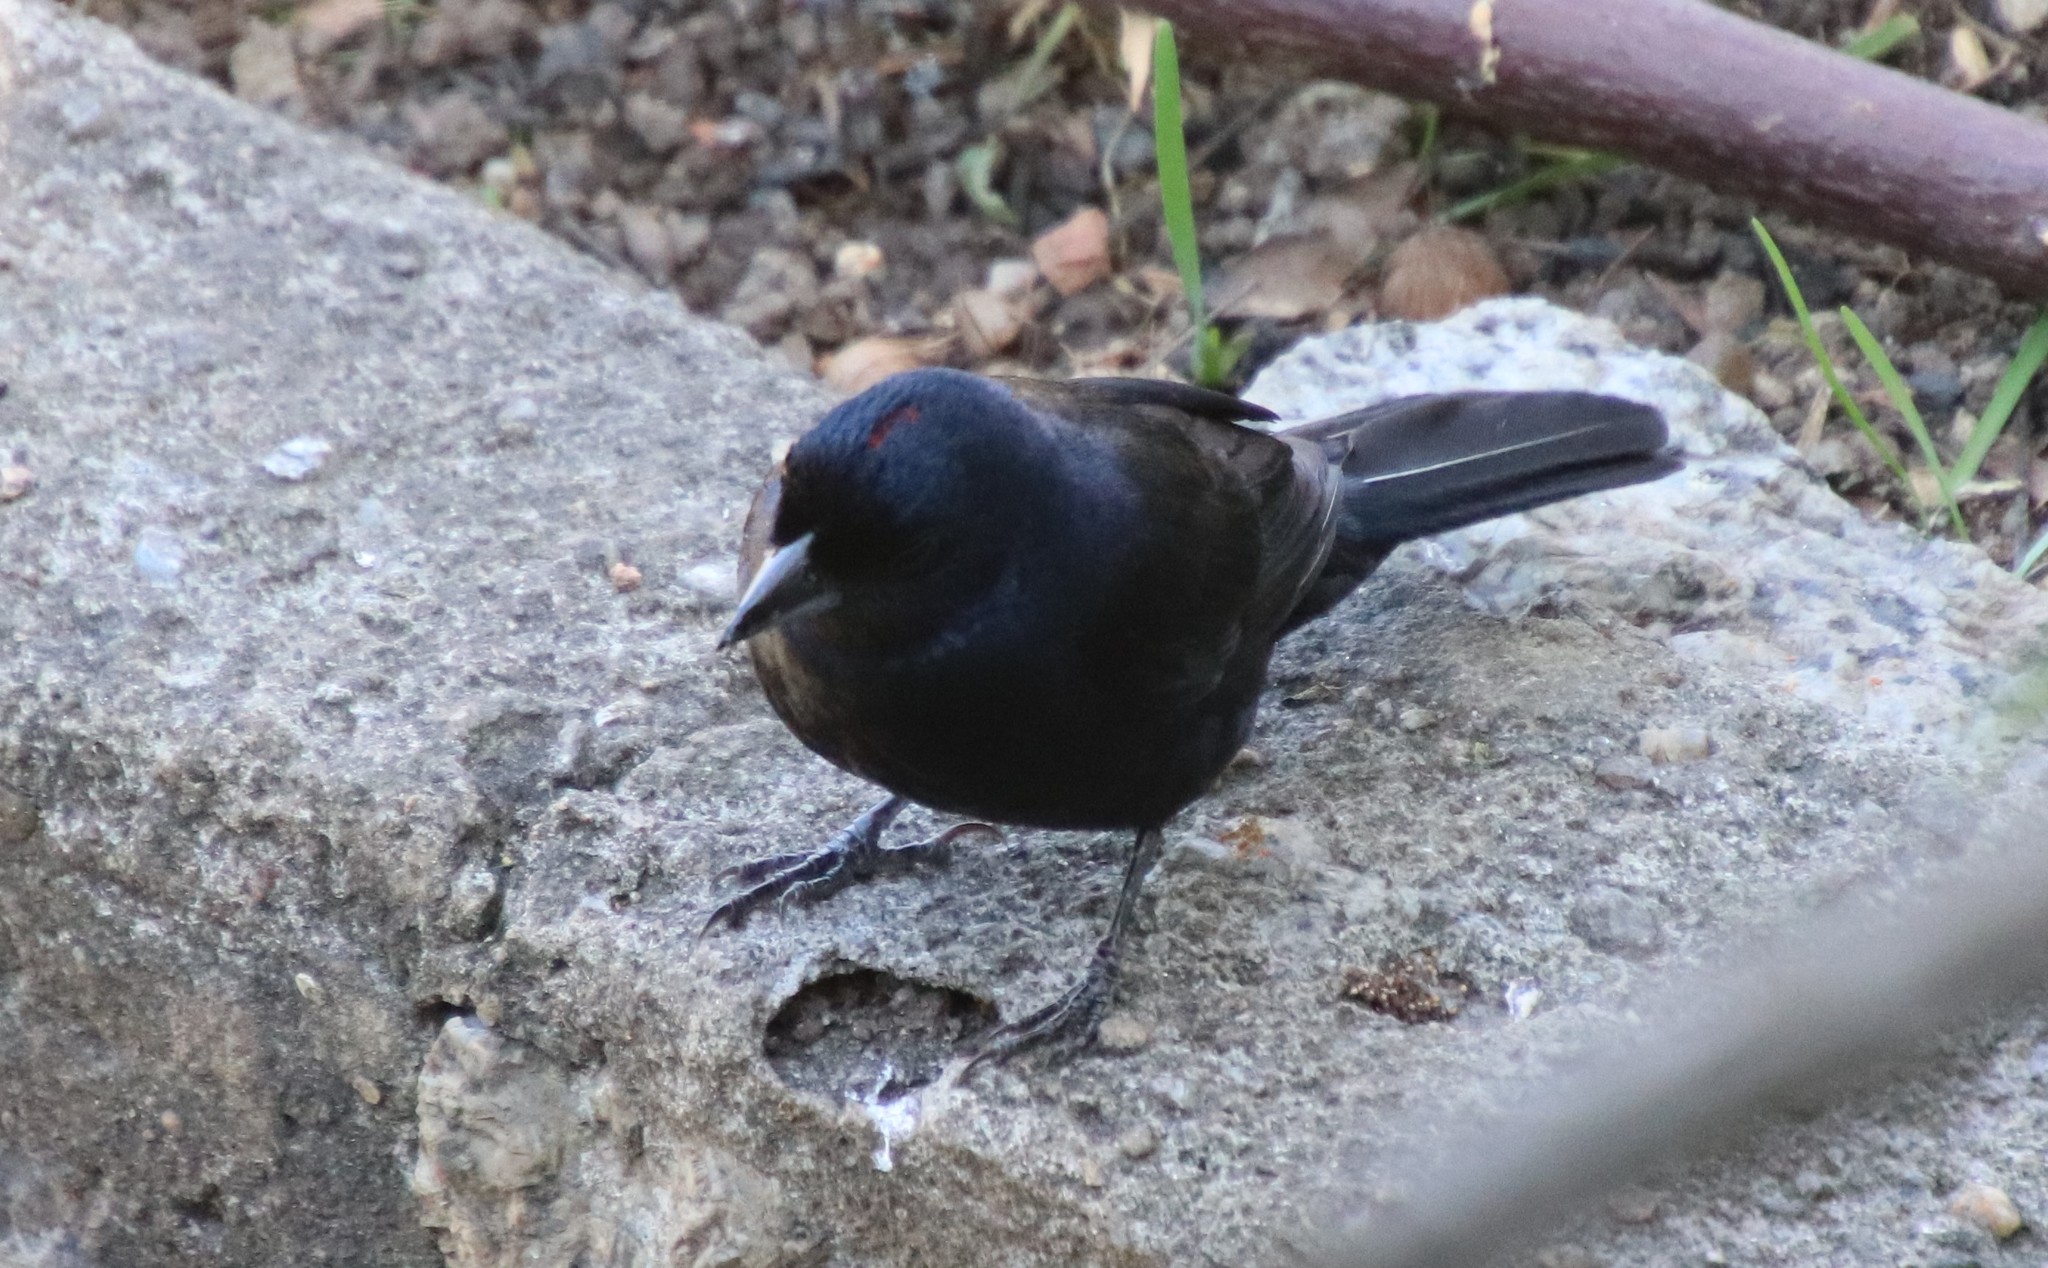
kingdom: Animalia
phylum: Chordata
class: Aves
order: Passeriformes
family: Thraupidae
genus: Tachyphonus
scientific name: Tachyphonus coronatus
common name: Ruby-crowned tanager
